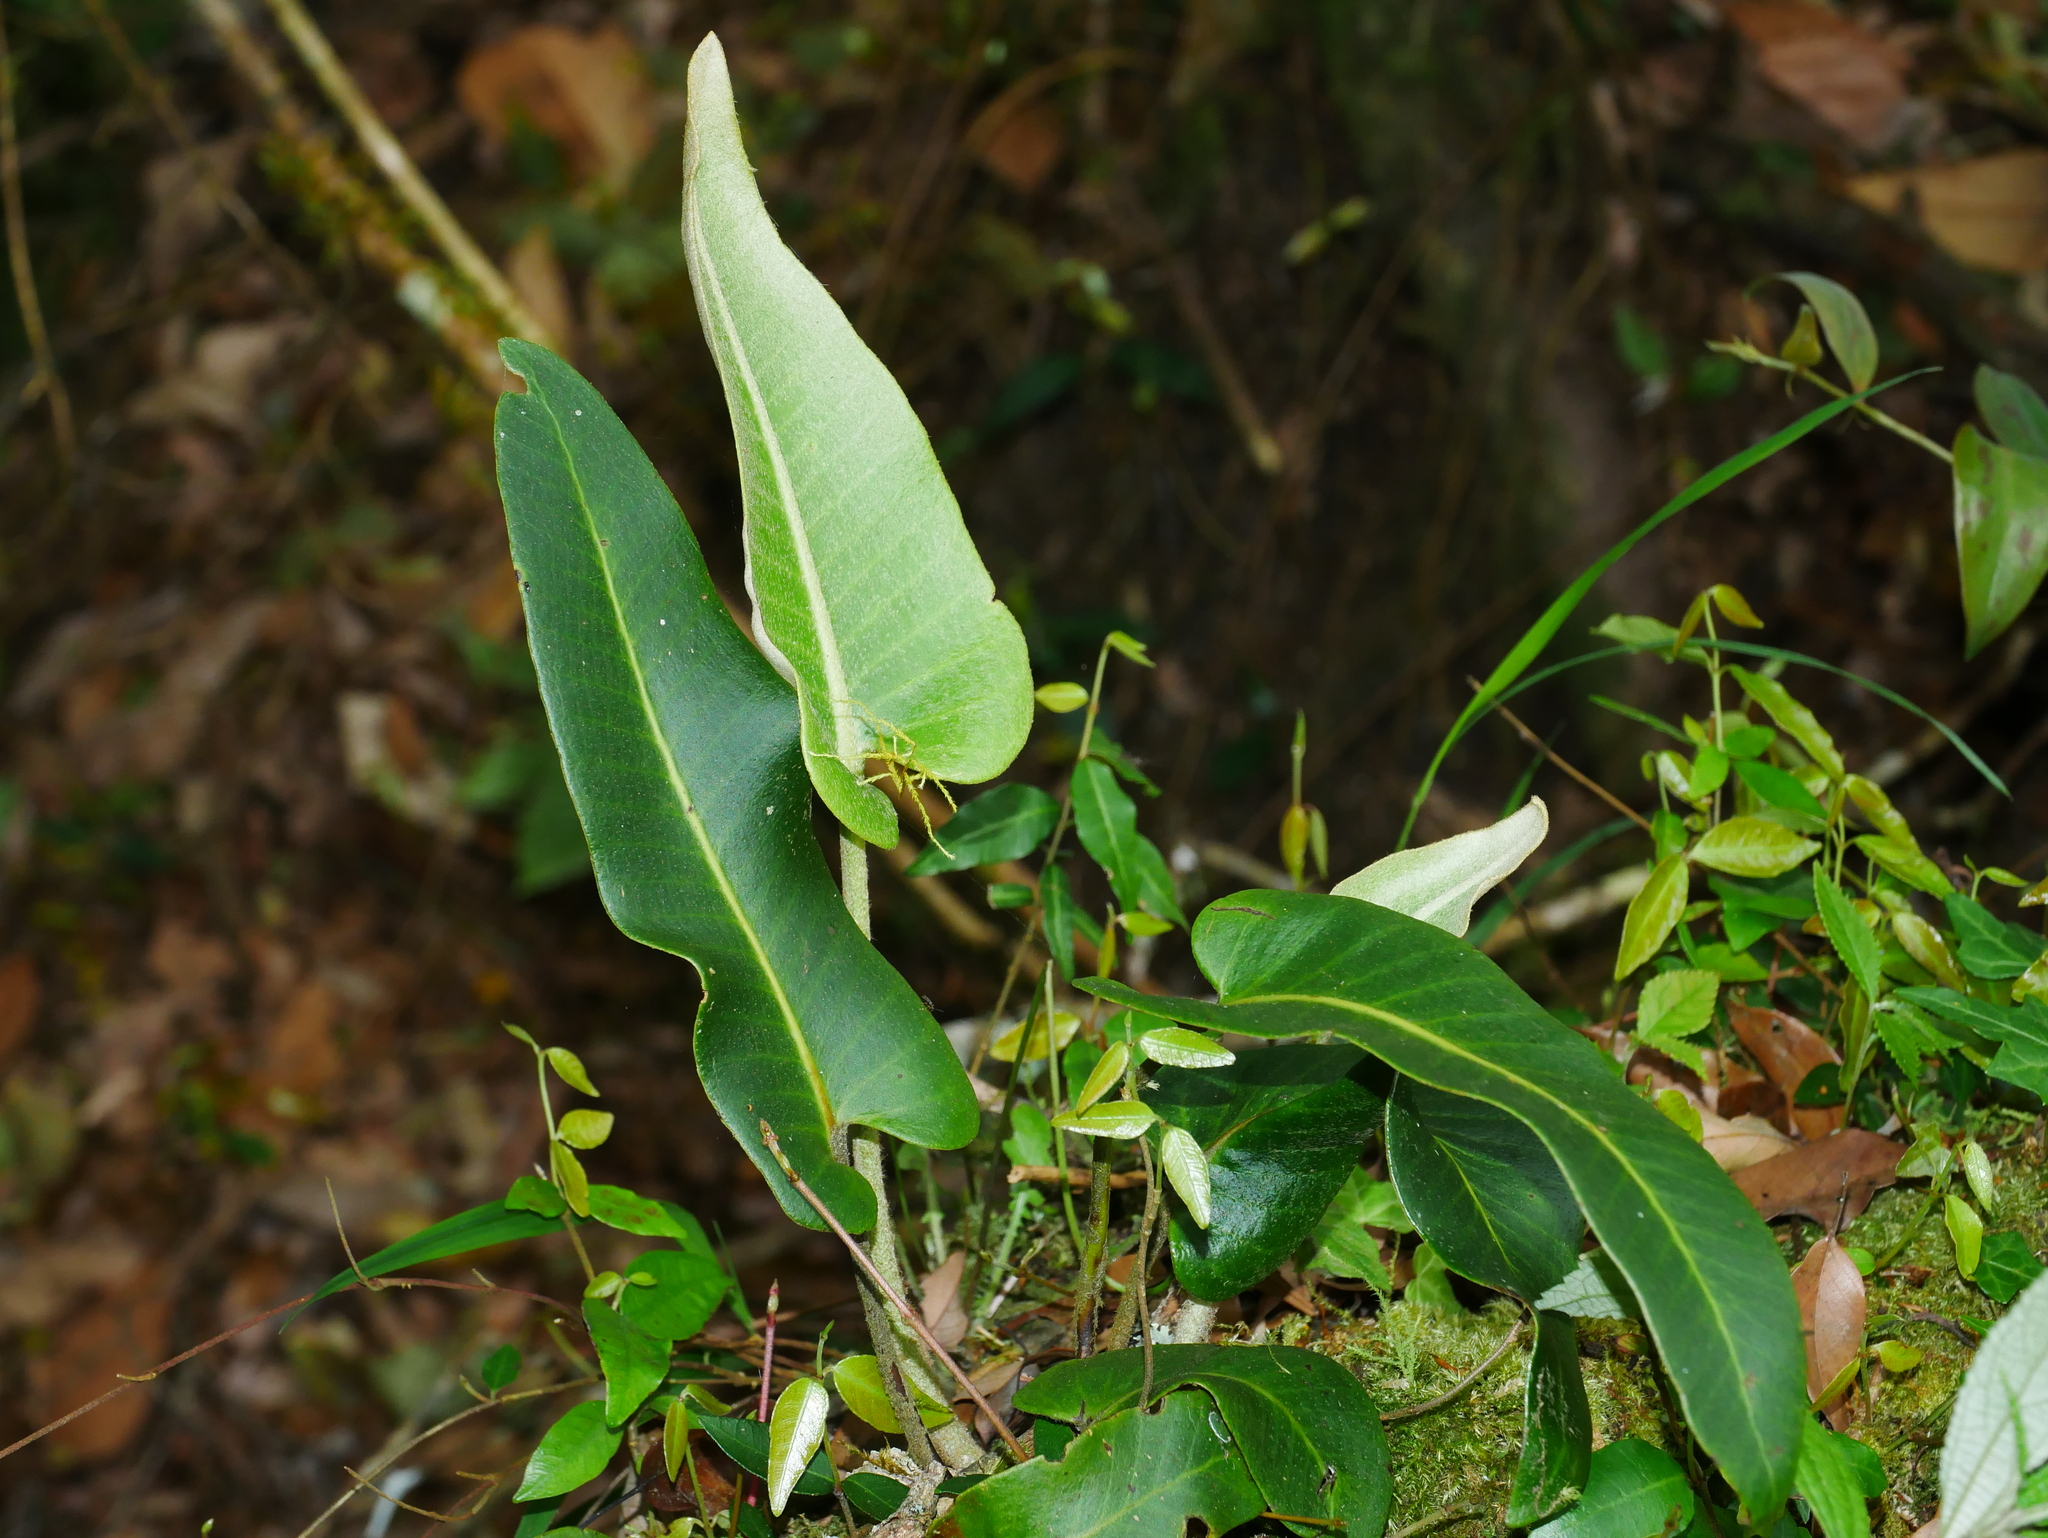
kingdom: Plantae
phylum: Tracheophyta
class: Polypodiopsida
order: Polypodiales
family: Polypodiaceae
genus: Pyrrosia
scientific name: Pyrrosia sheareri
